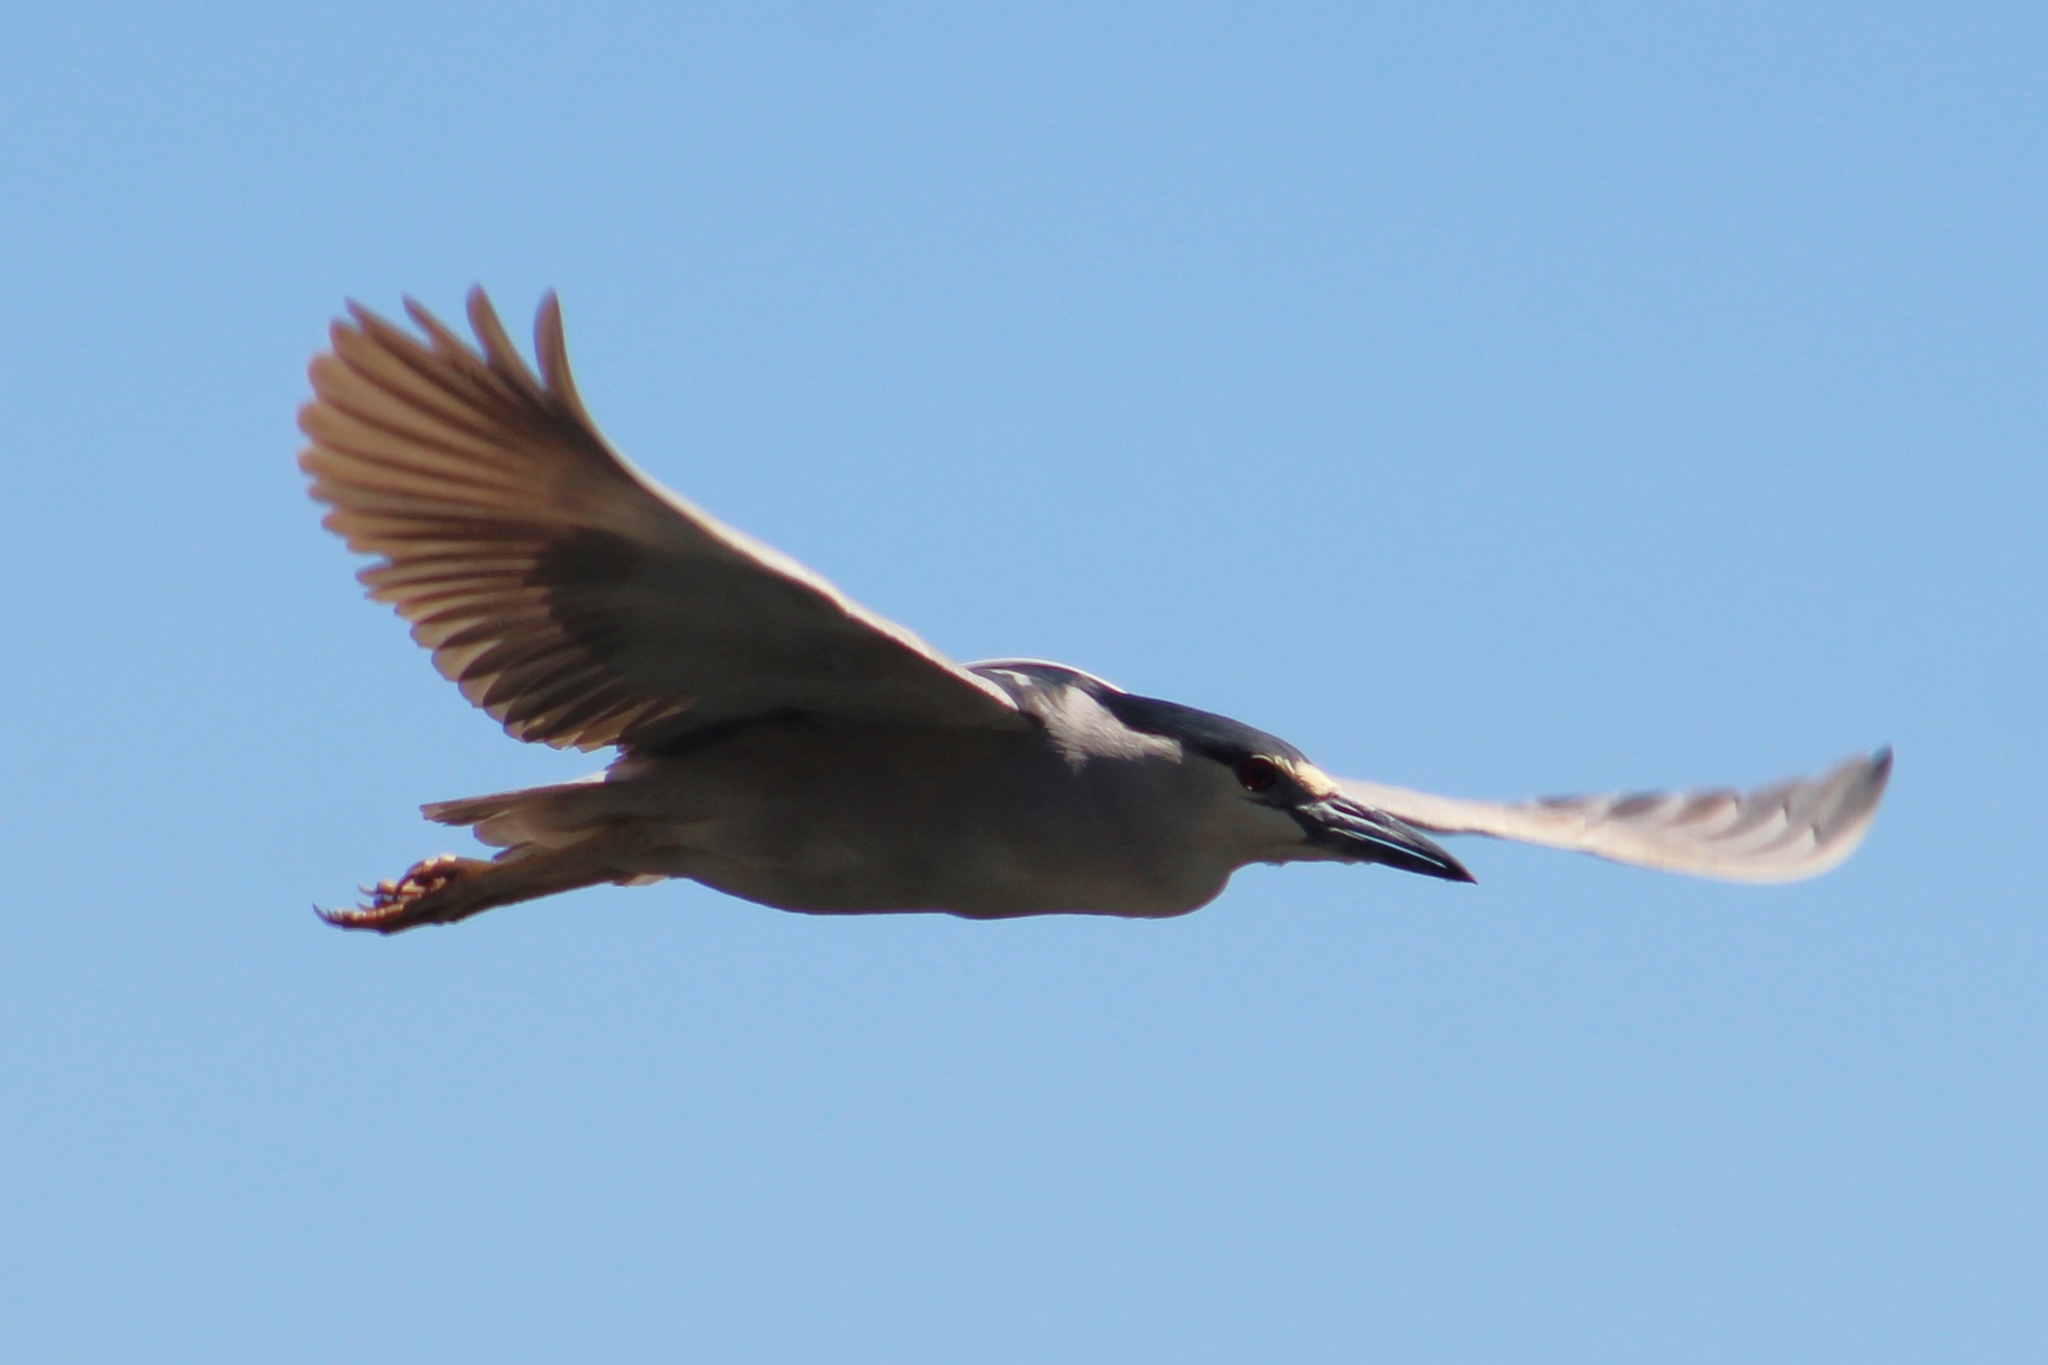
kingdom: Animalia
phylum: Chordata
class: Aves
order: Pelecaniformes
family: Ardeidae
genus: Nycticorax
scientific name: Nycticorax nycticorax
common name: Black-crowned night heron
